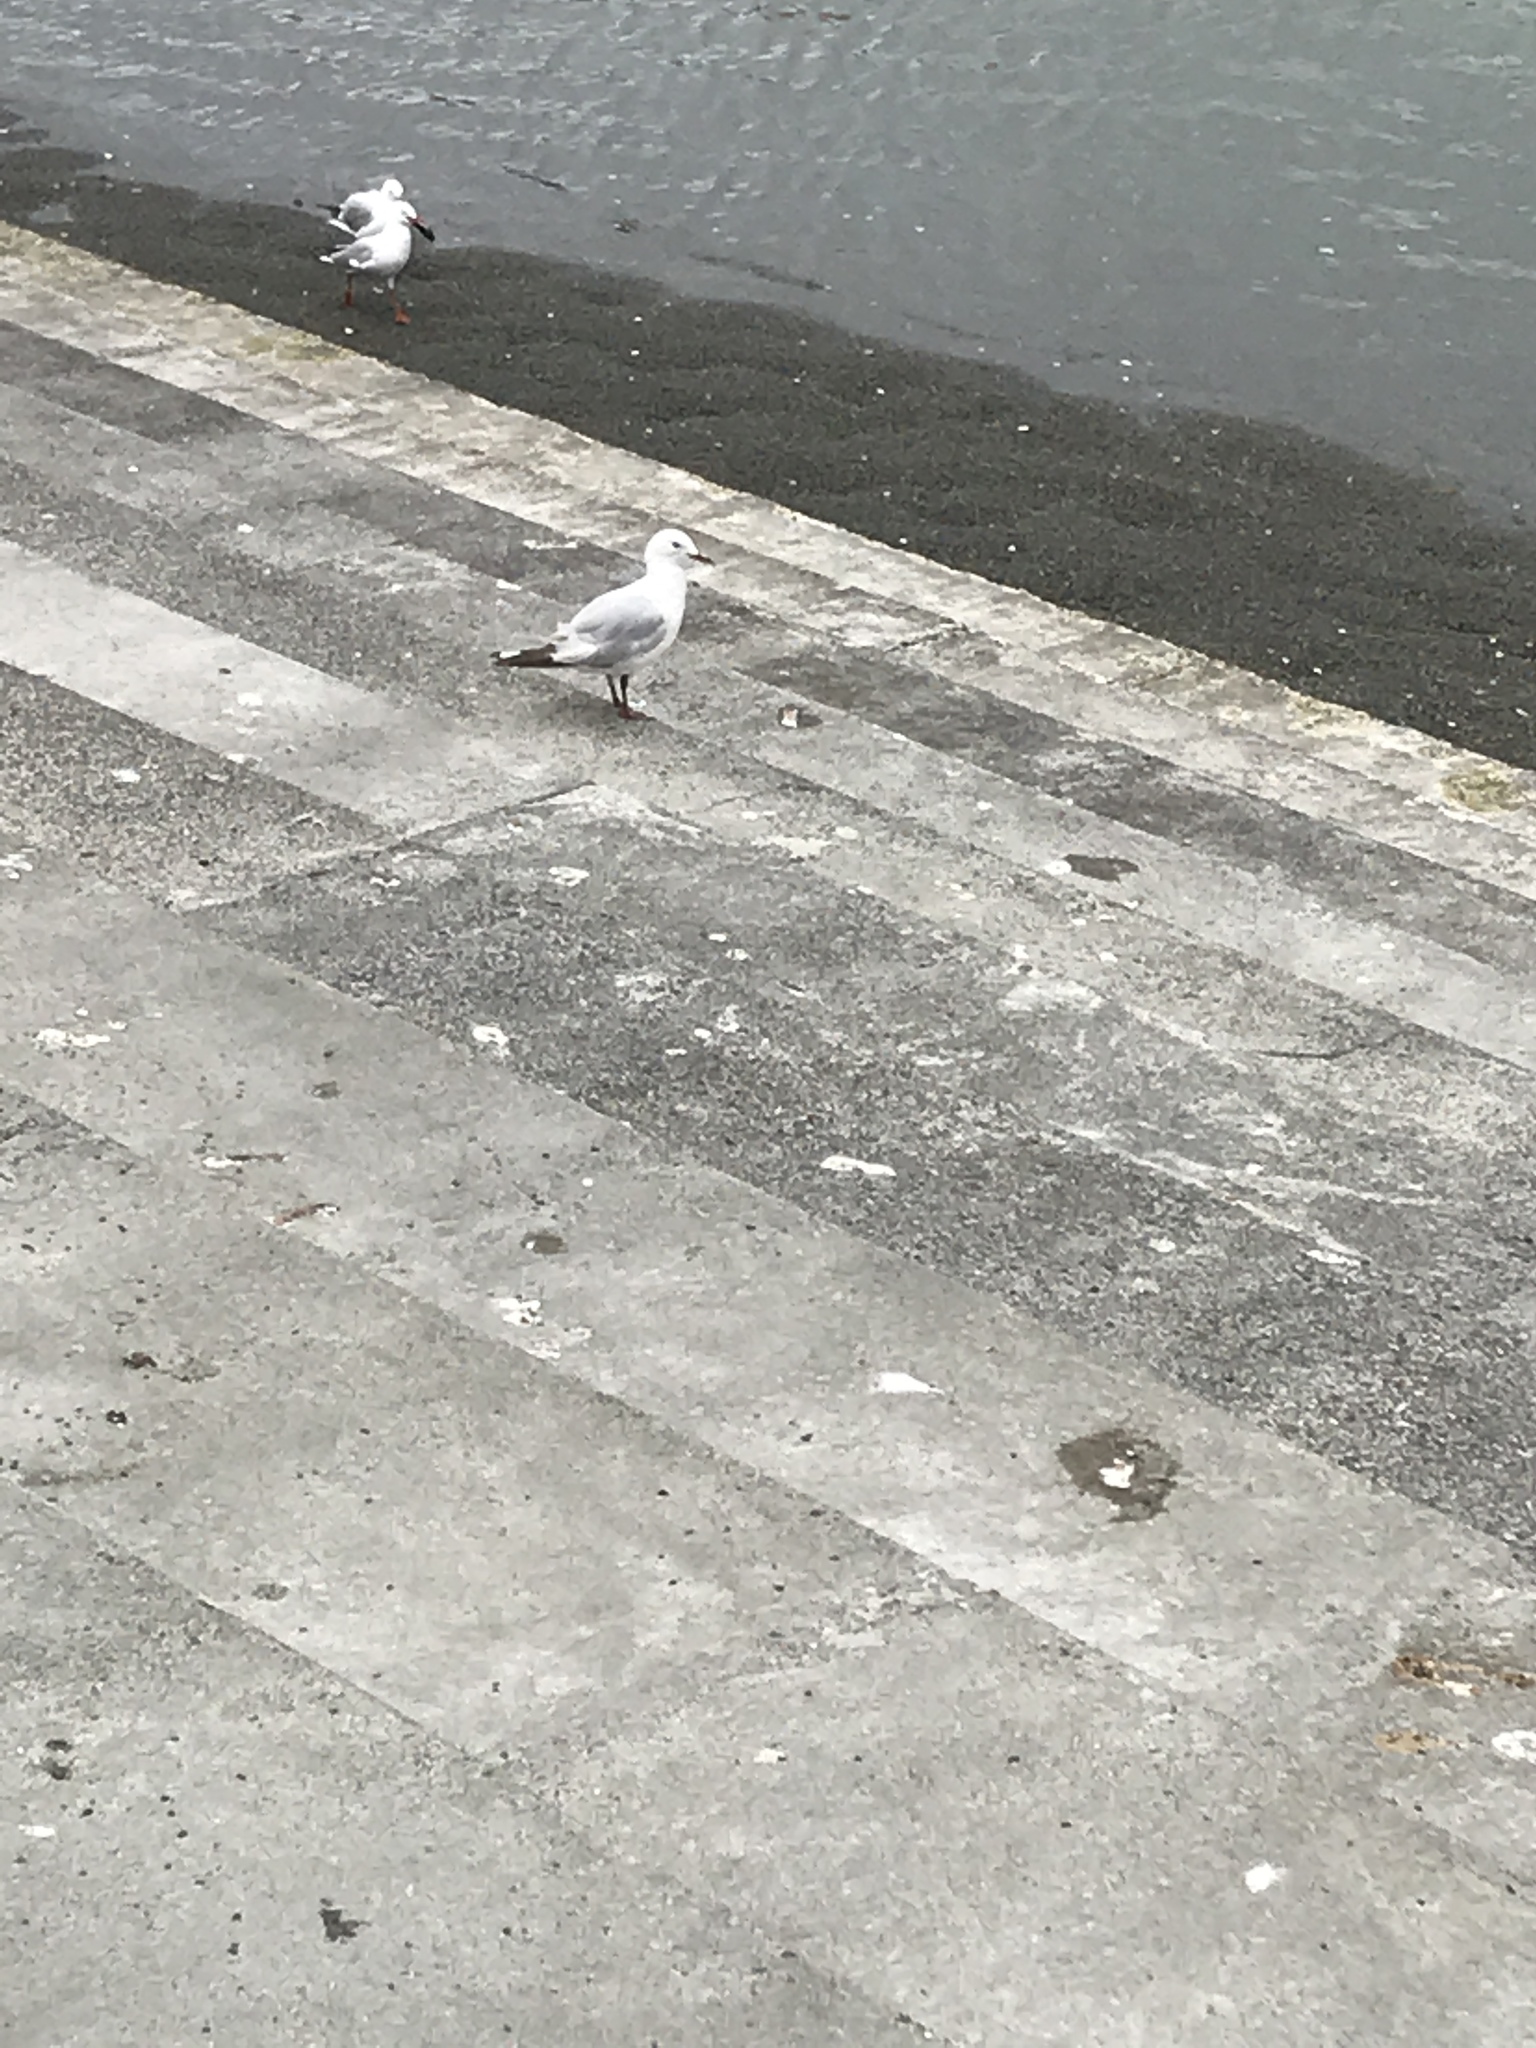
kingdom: Animalia
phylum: Chordata
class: Aves
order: Charadriiformes
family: Laridae
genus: Chroicocephalus
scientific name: Chroicocephalus novaehollandiae
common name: Silver gull
